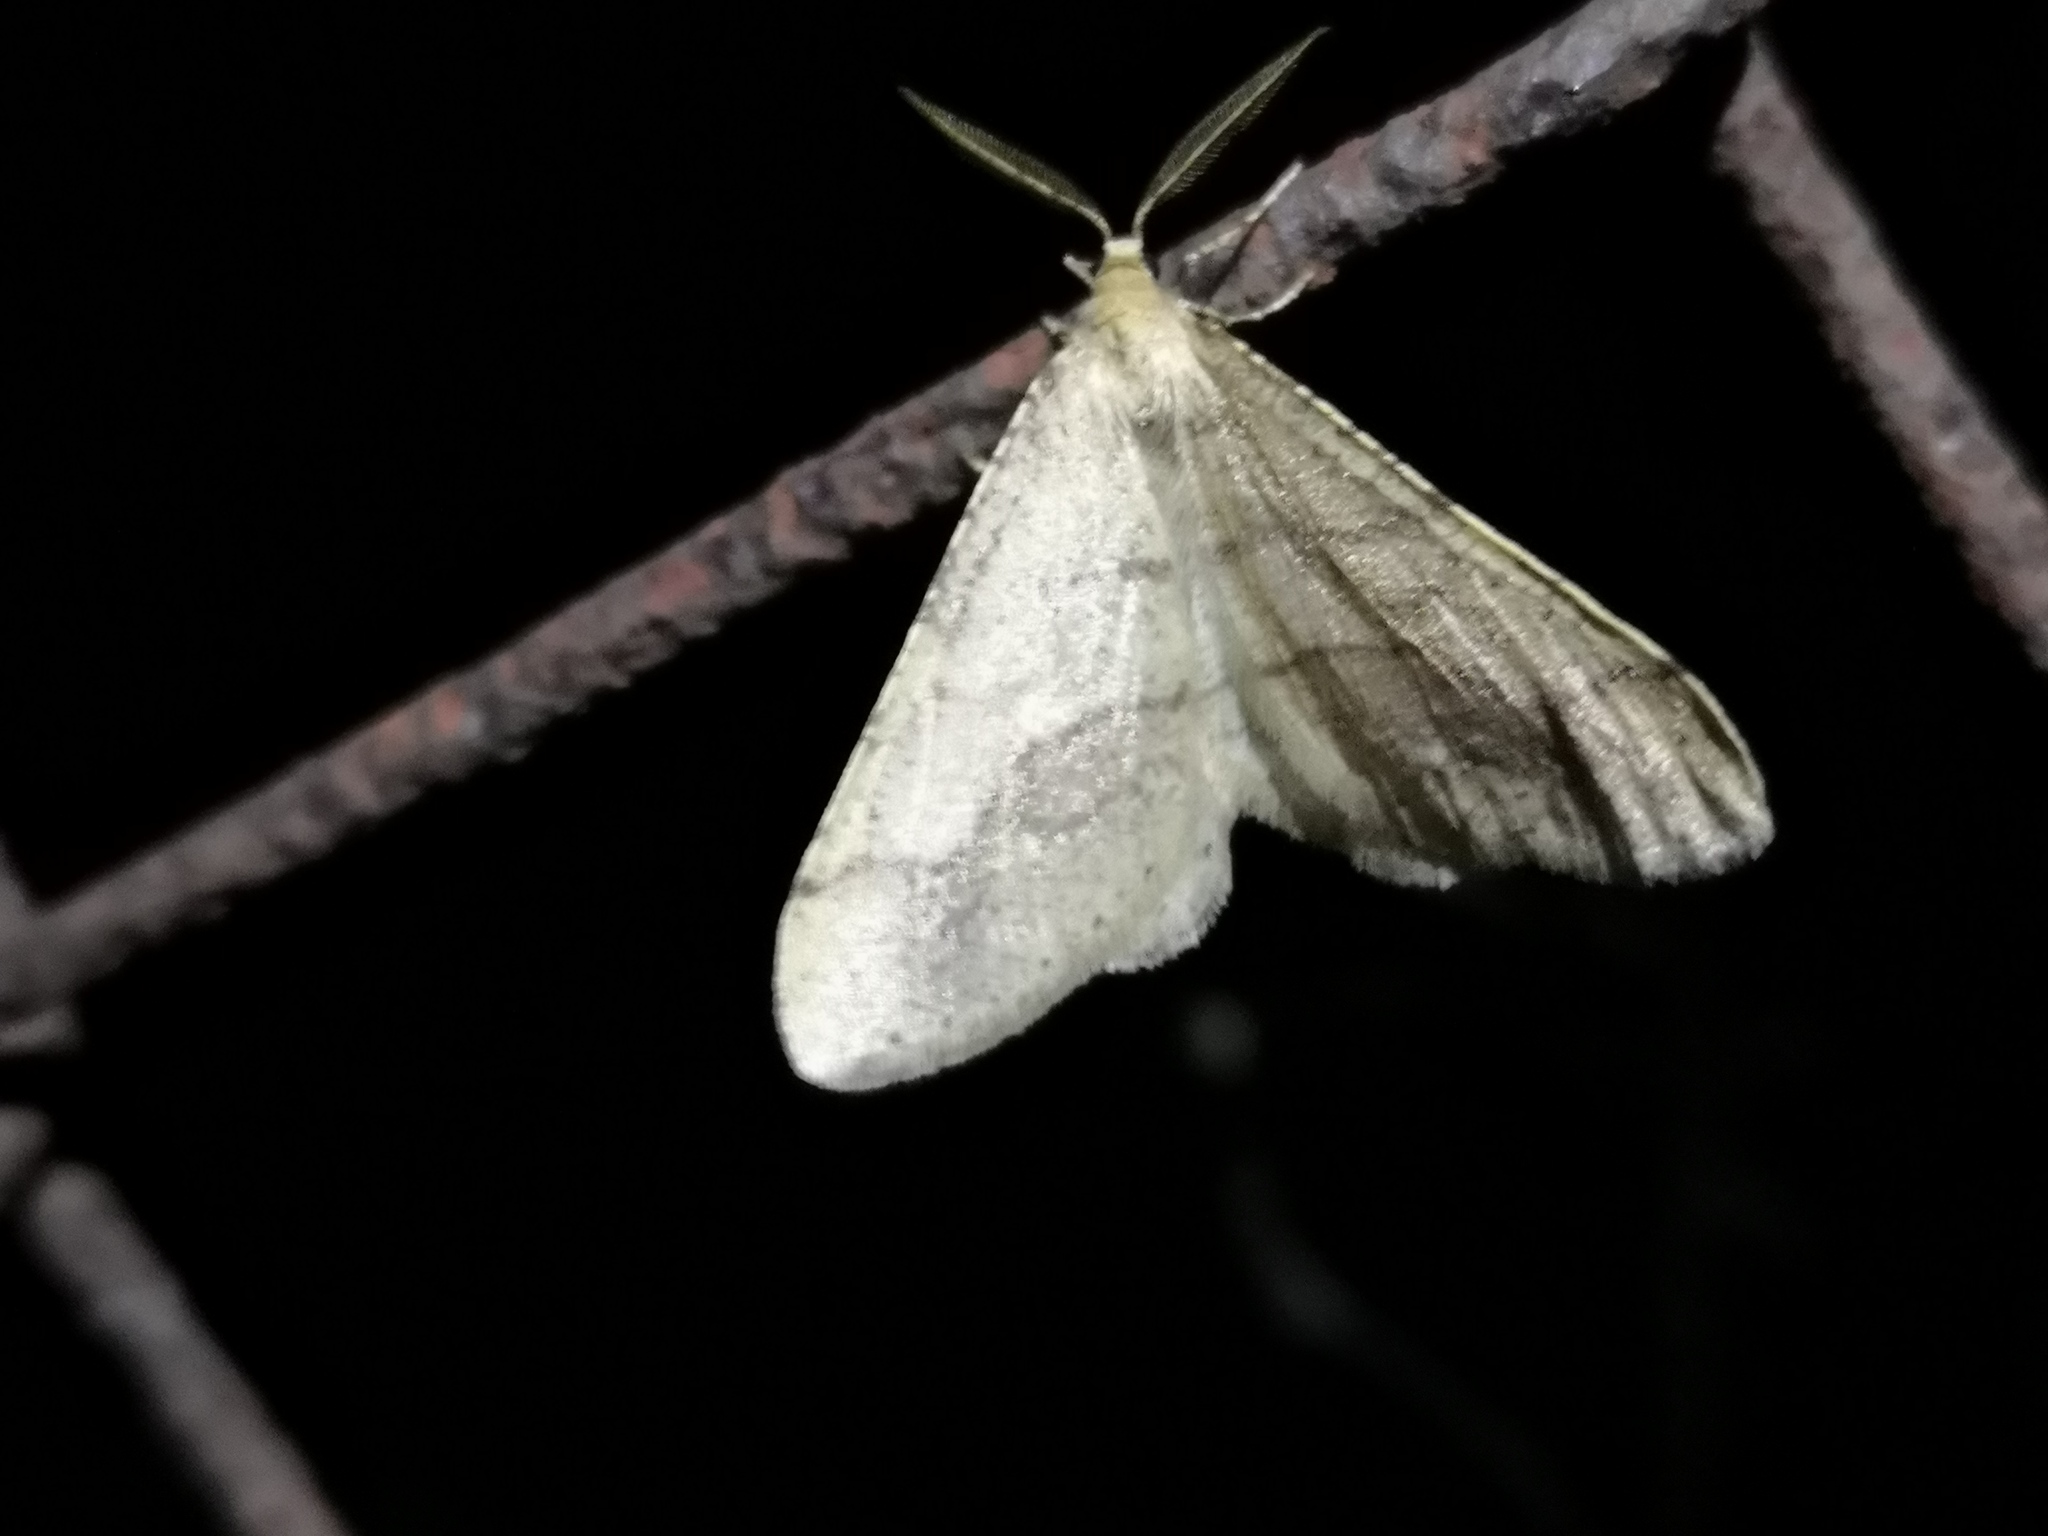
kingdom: Animalia
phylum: Arthropoda
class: Insecta
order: Lepidoptera
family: Geometridae
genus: Agriopis
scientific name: Agriopis marginaria
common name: Dotted border
